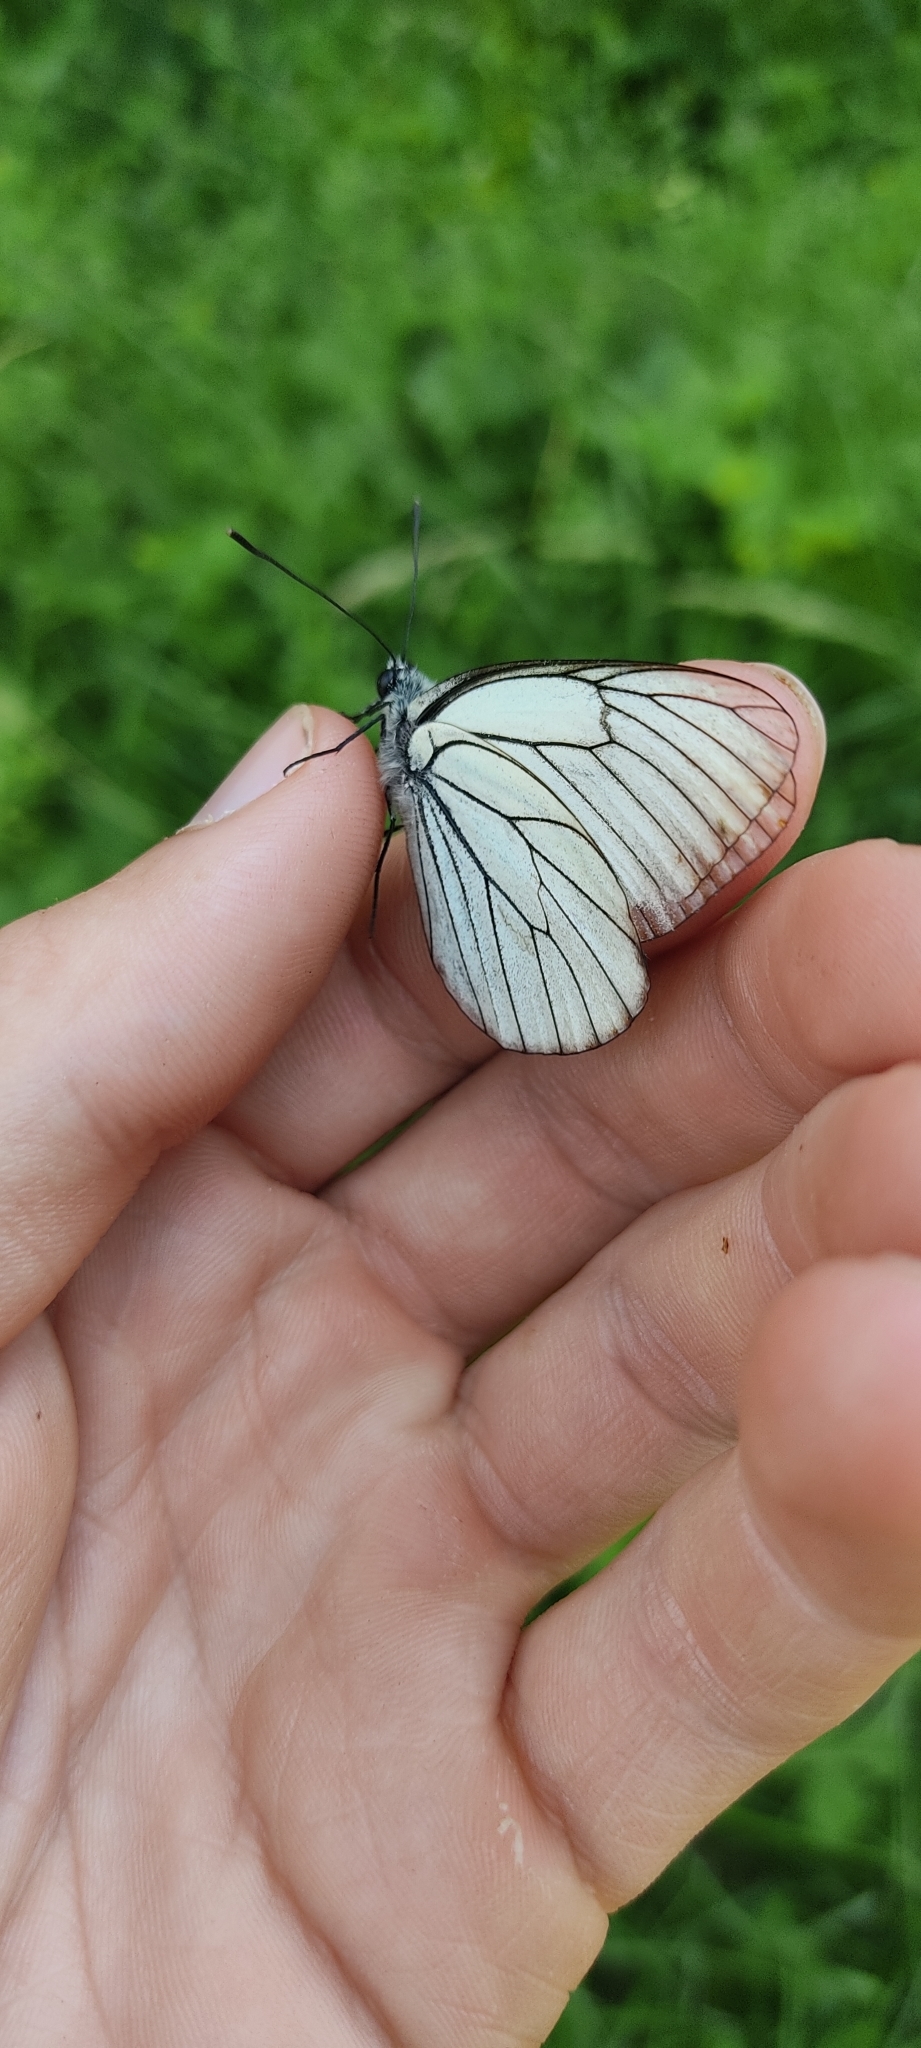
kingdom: Animalia
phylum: Arthropoda
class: Insecta
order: Lepidoptera
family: Pieridae
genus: Aporia
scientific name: Aporia crataegi
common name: Black-veined white
